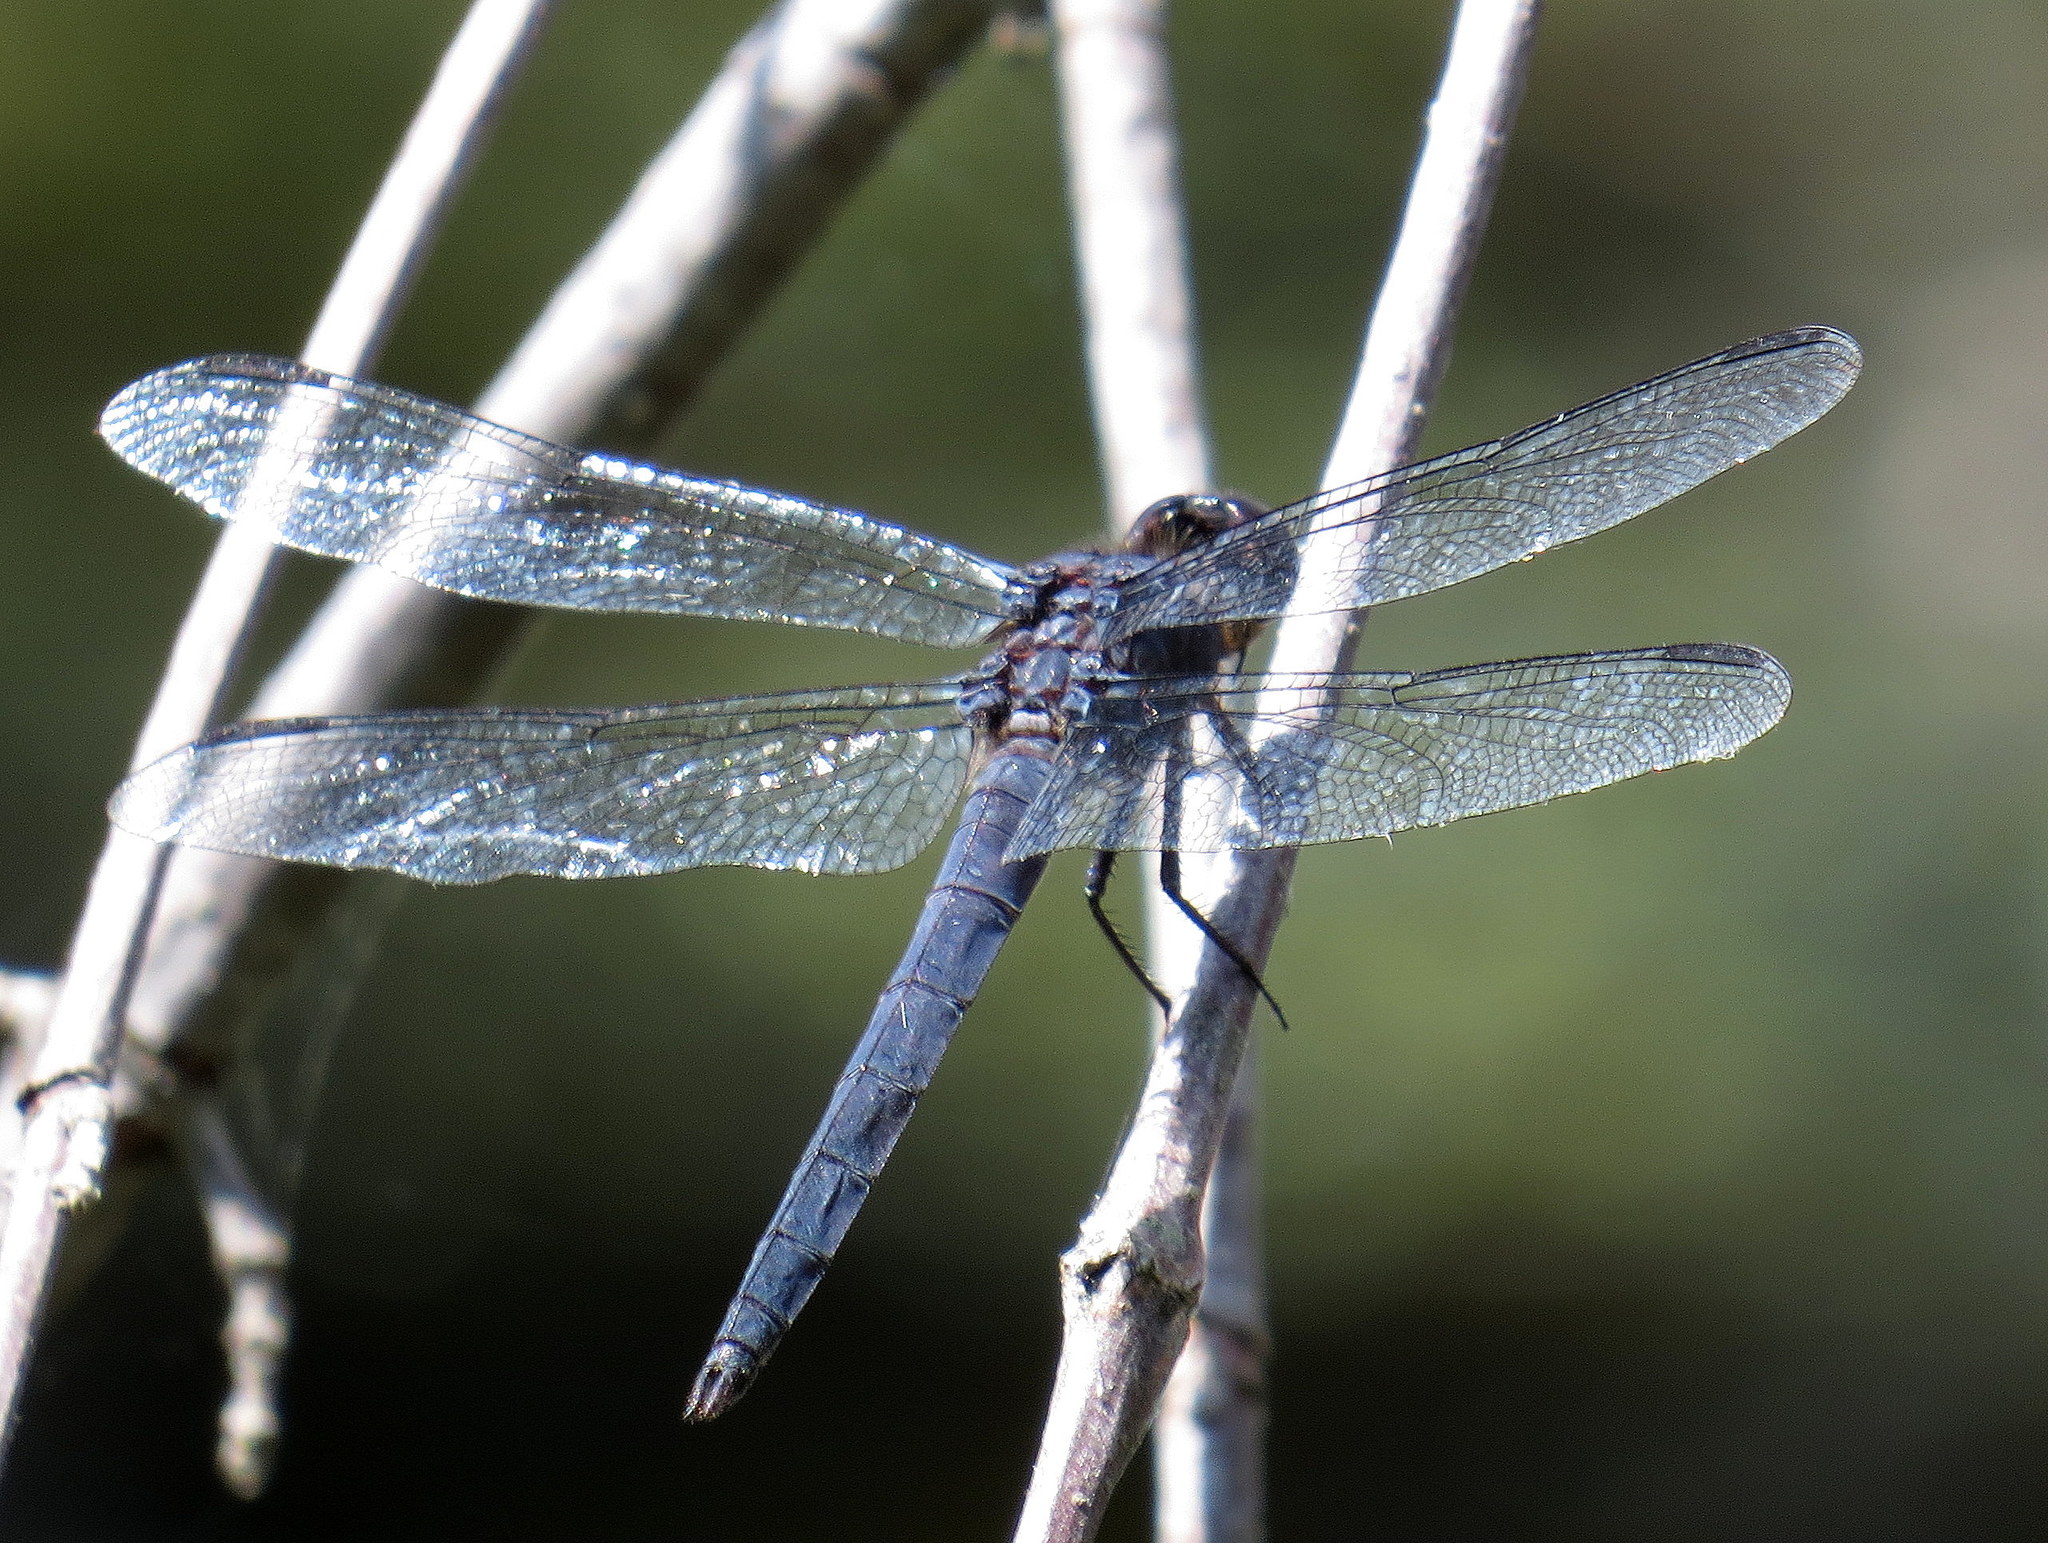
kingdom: Animalia
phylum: Arthropoda
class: Insecta
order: Odonata
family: Libellulidae
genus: Libellula
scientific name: Libellula incesta
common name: Slaty skimmer
